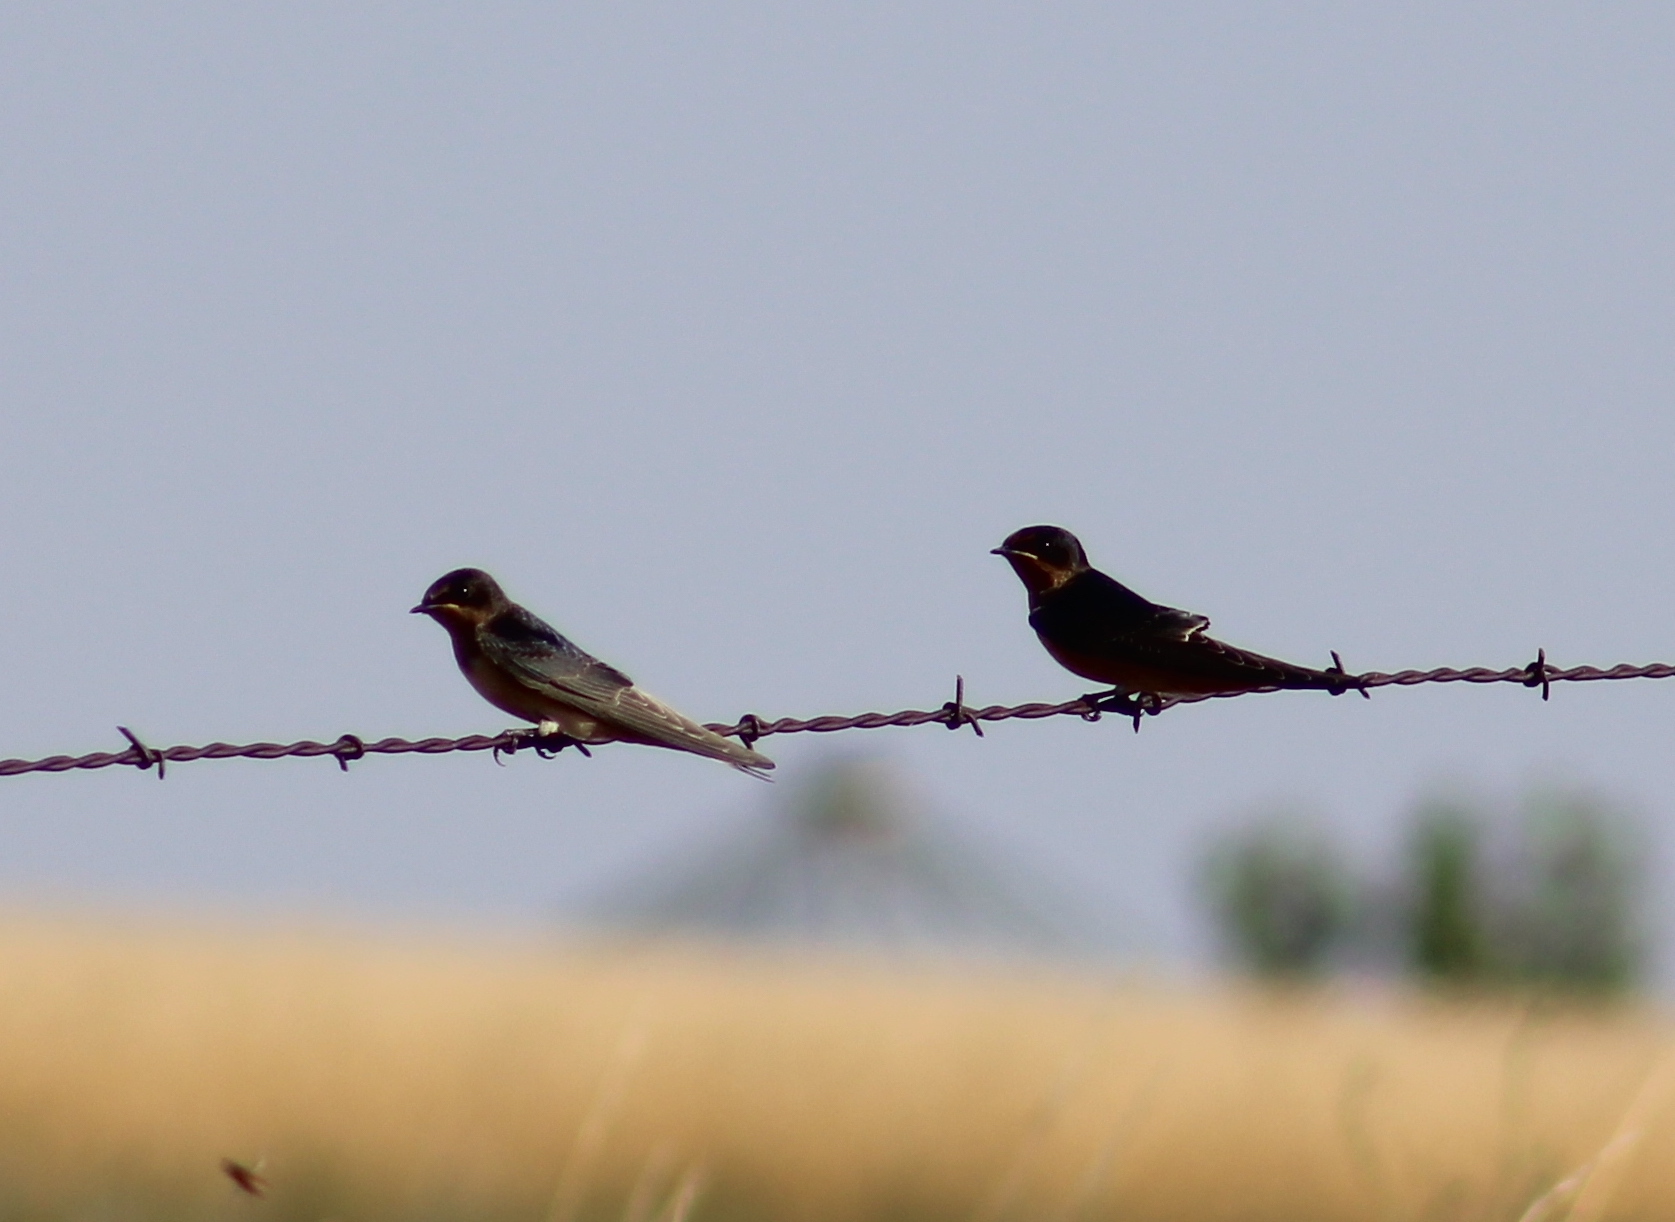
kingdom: Animalia
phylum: Chordata
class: Aves
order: Passeriformes
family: Hirundinidae
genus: Hirundo
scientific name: Hirundo rustica
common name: Barn swallow
